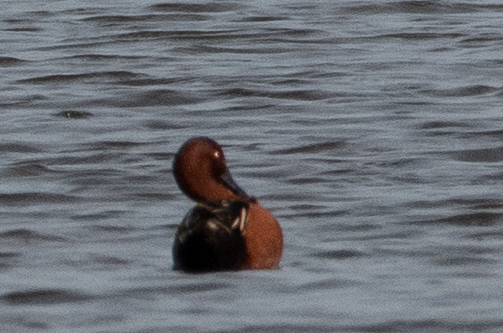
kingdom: Animalia
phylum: Chordata
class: Aves
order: Anseriformes
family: Anatidae
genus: Spatula
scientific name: Spatula cyanoptera
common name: Cinnamon teal
